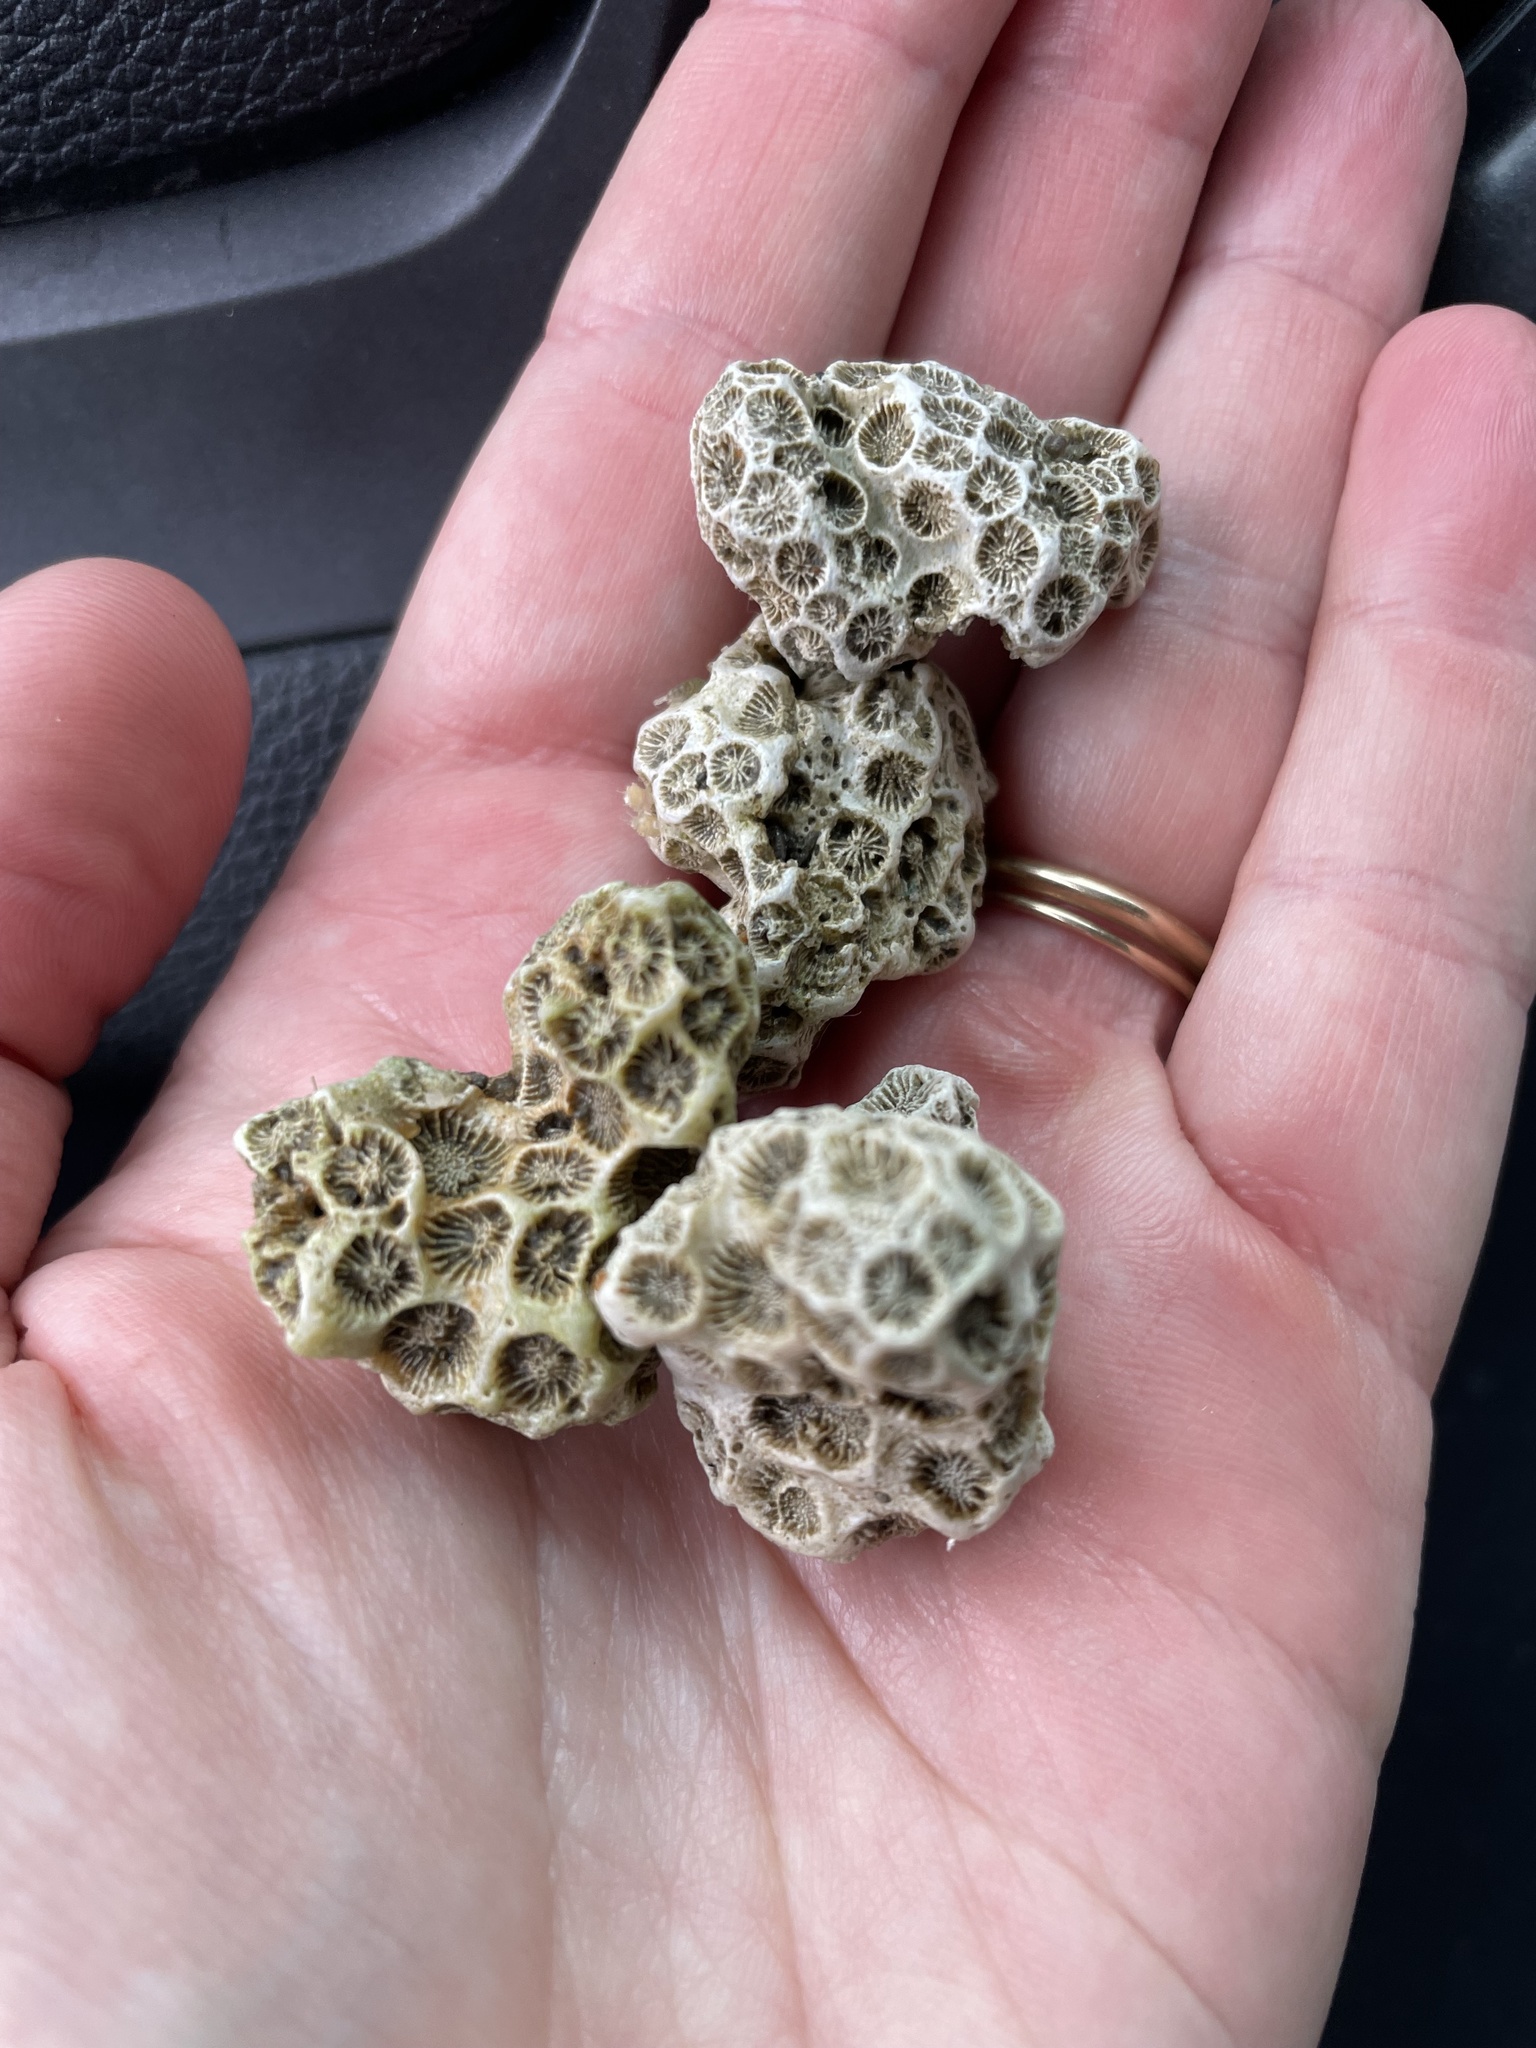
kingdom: Animalia
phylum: Cnidaria
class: Anthozoa
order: Scleractinia
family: Astrangiidae
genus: Astrangia
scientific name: Astrangia poculata
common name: Northern star coral
